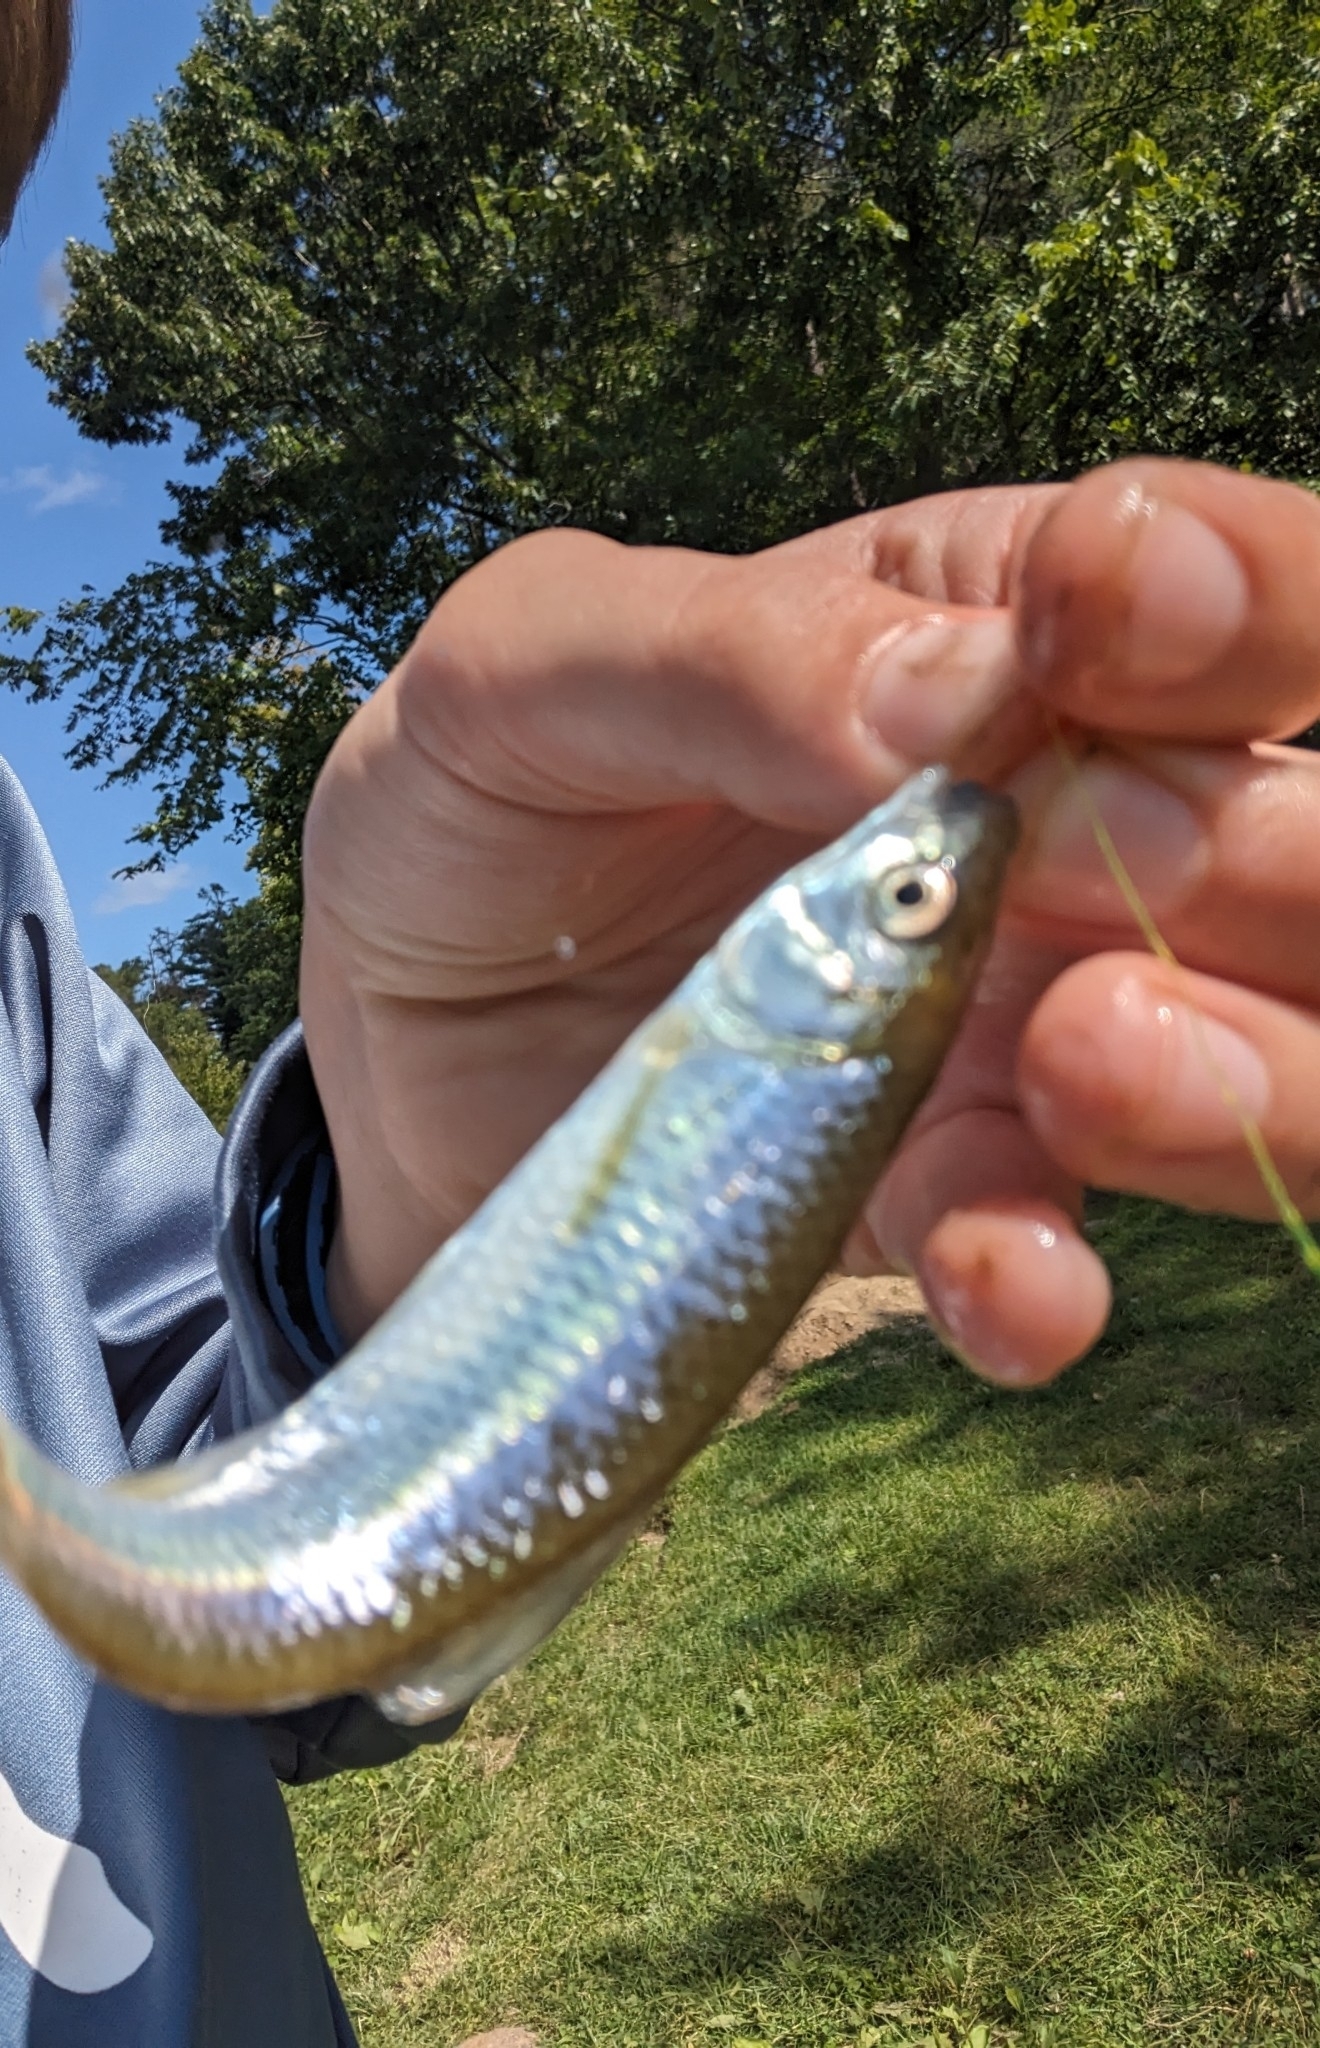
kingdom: Animalia
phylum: Chordata
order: Cypriniformes
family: Cyprinidae
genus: Cyprinella
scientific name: Cyprinella spiloptera
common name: Spotfin shiner
